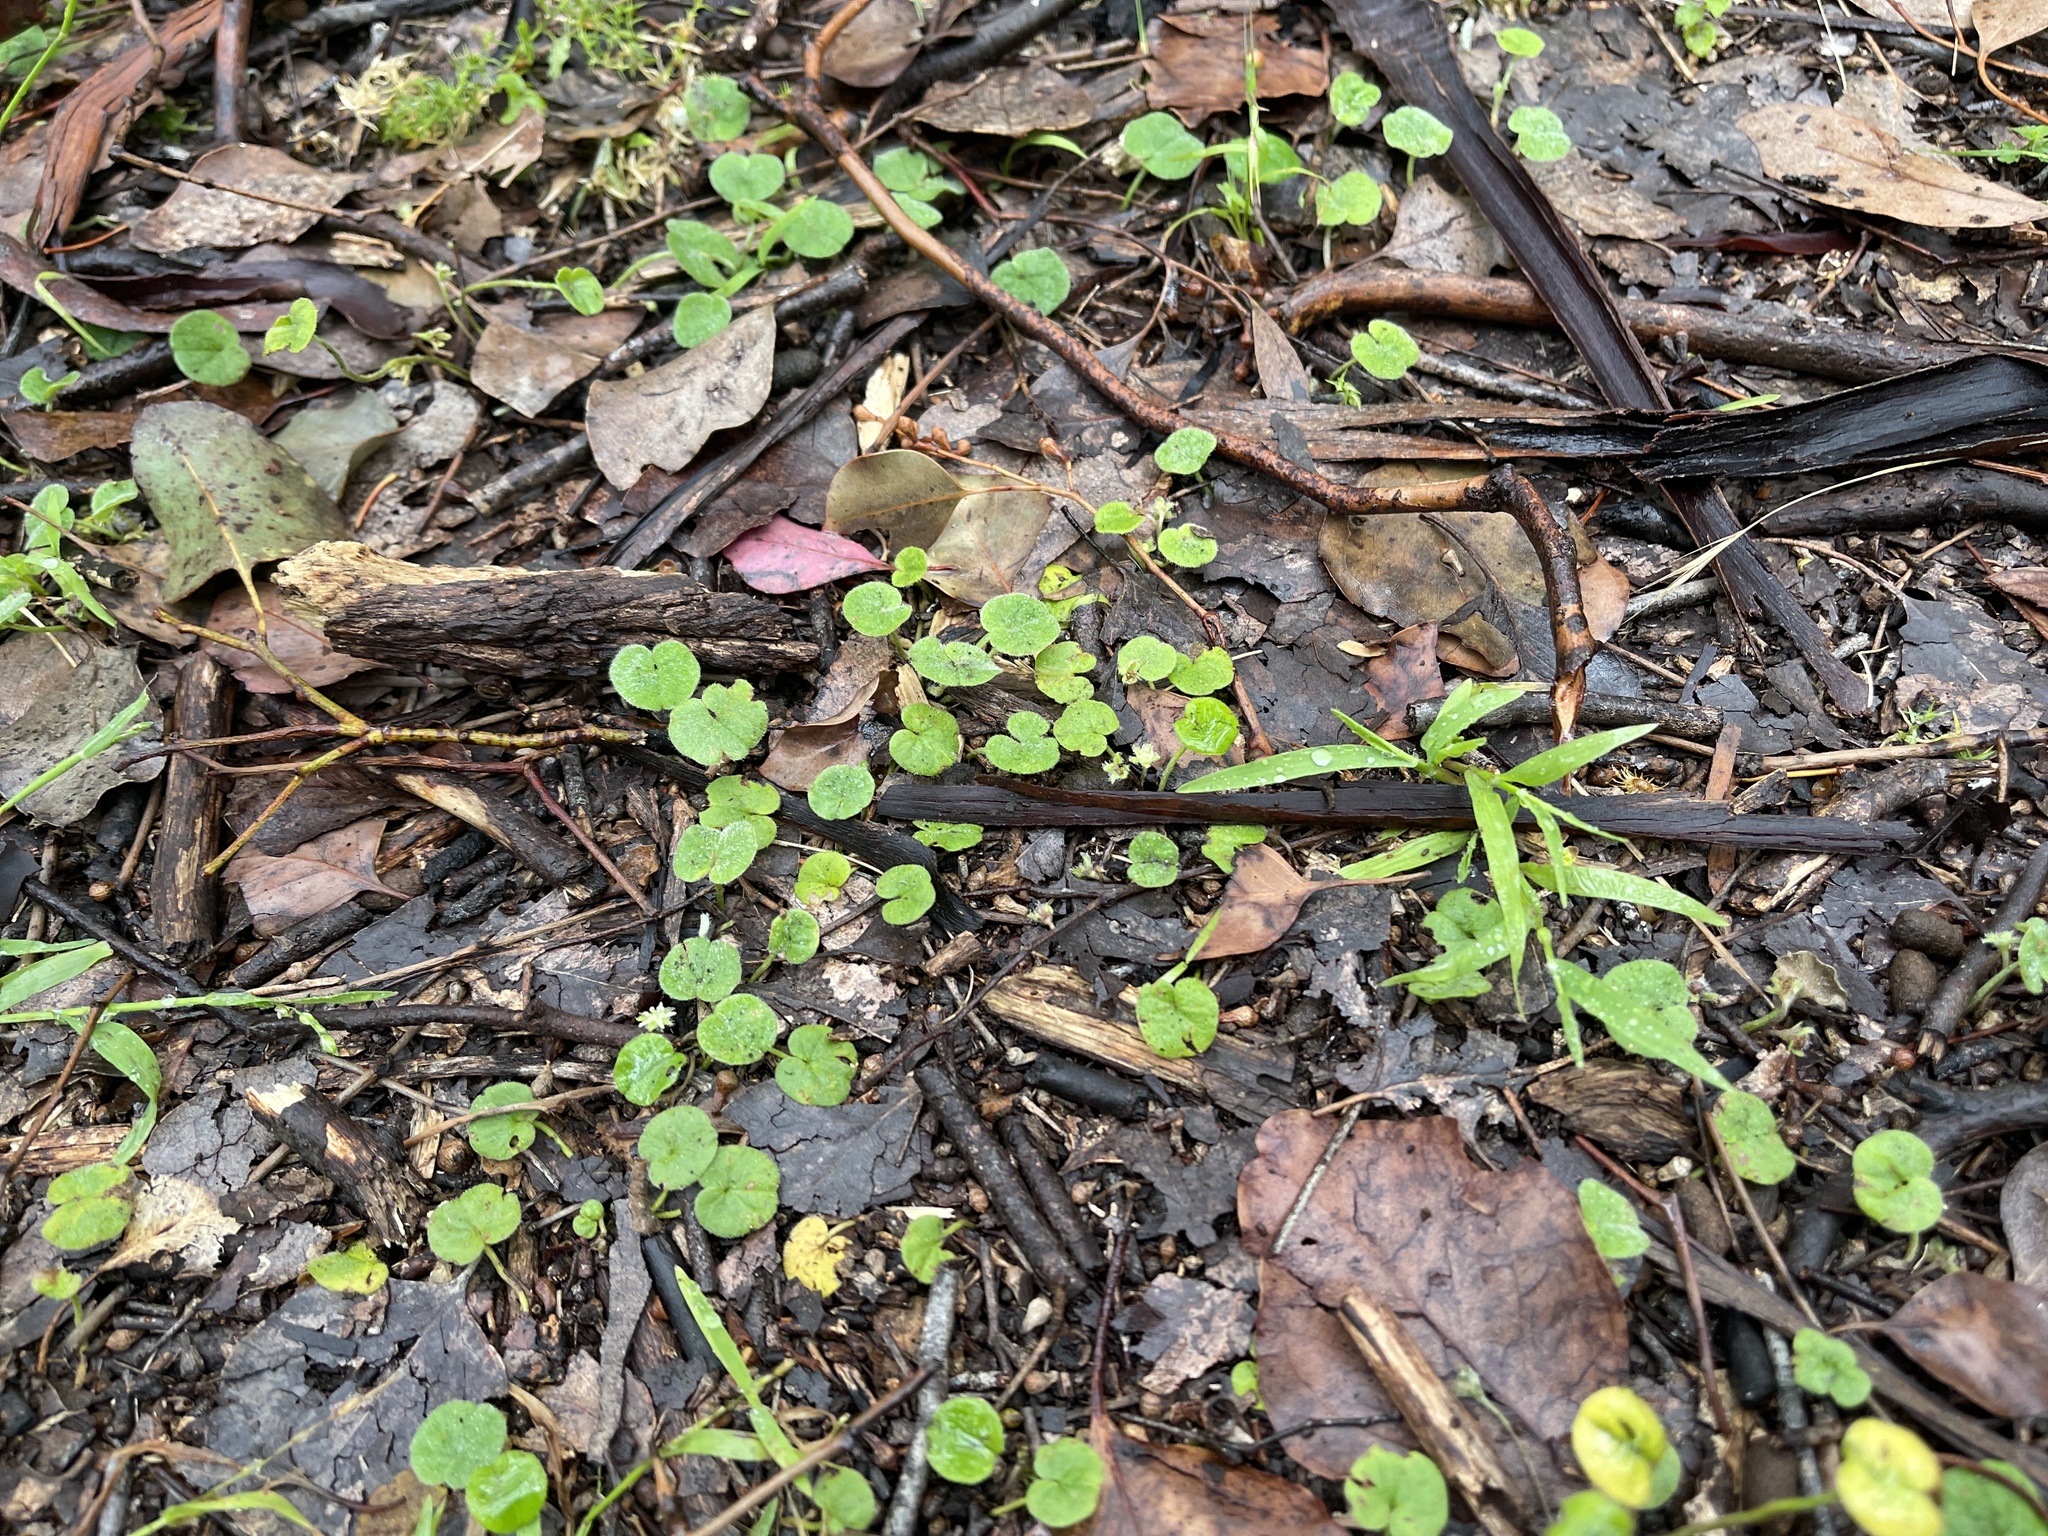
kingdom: Plantae
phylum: Tracheophyta
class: Magnoliopsida
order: Solanales
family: Convolvulaceae
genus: Dichondra
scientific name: Dichondra repens
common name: Kidneyweed
